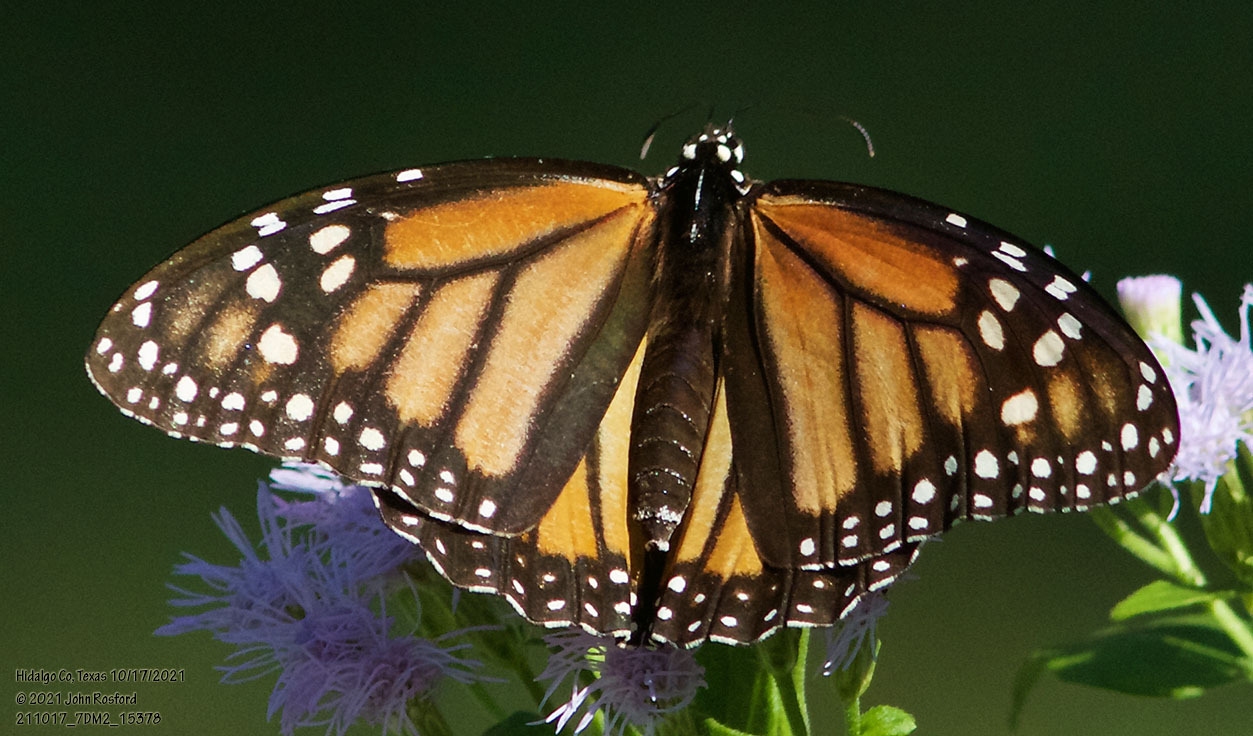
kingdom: Animalia
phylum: Arthropoda
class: Insecta
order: Lepidoptera
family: Nymphalidae
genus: Danaus
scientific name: Danaus plexippus
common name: Monarch
